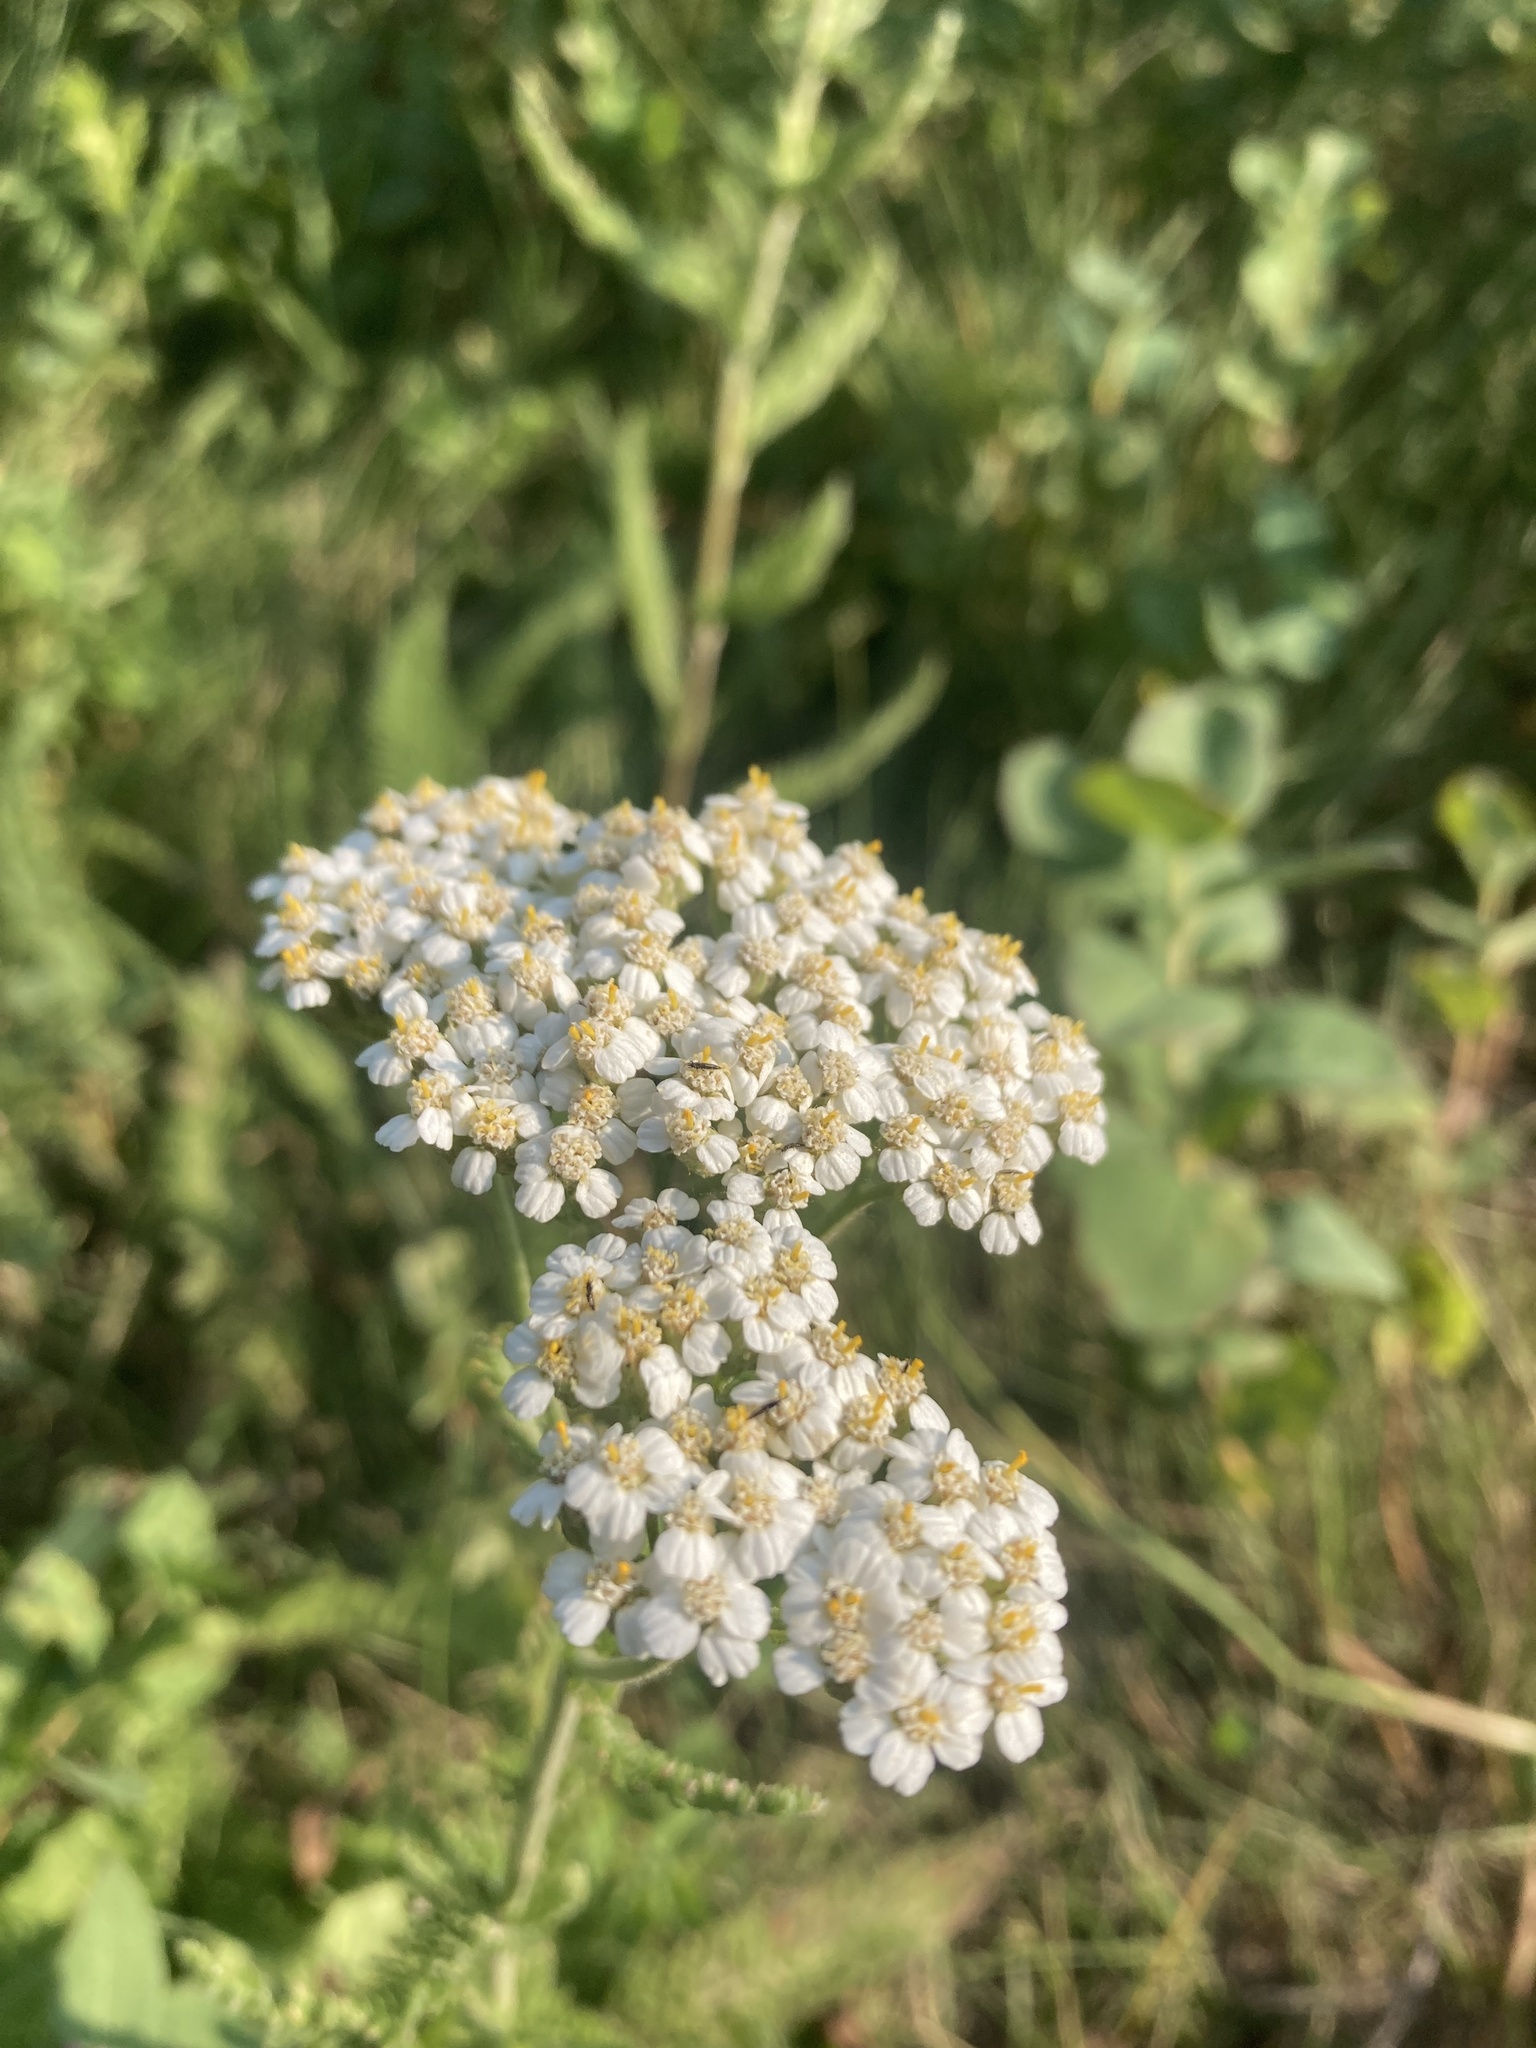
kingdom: Plantae
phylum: Tracheophyta
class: Magnoliopsida
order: Asterales
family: Asteraceae
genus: Achillea
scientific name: Achillea millefolium
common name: Yarrow
